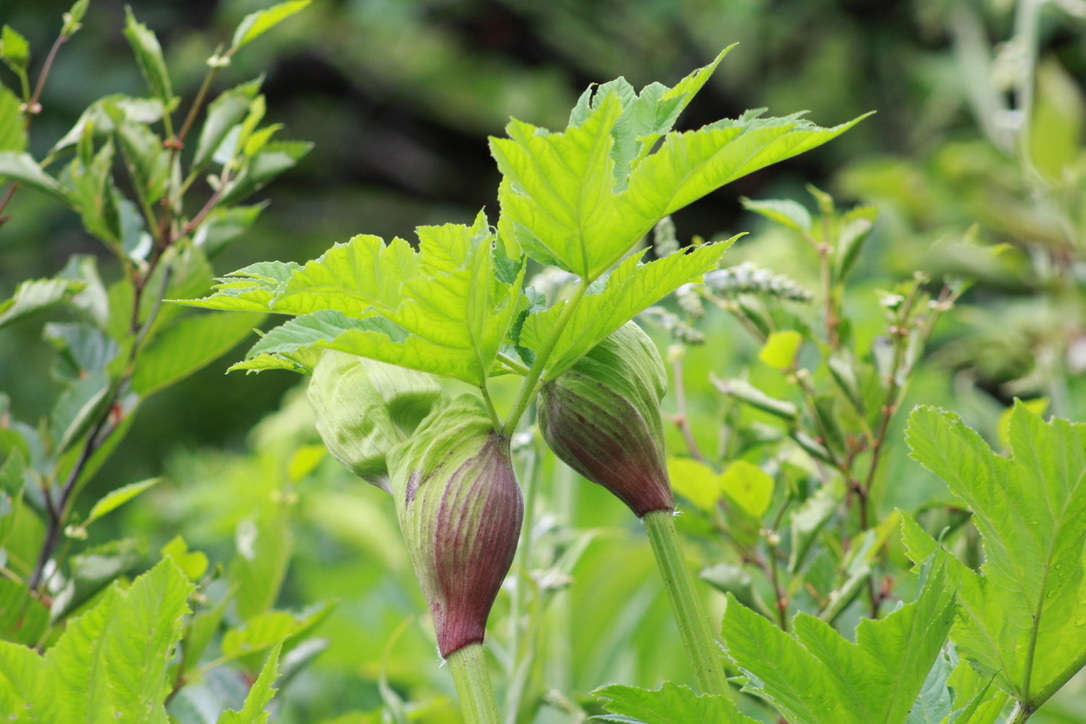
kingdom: Plantae
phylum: Tracheophyta
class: Magnoliopsida
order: Apiales
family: Apiaceae
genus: Heracleum
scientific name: Heracleum maximum
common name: American cow parsnip
